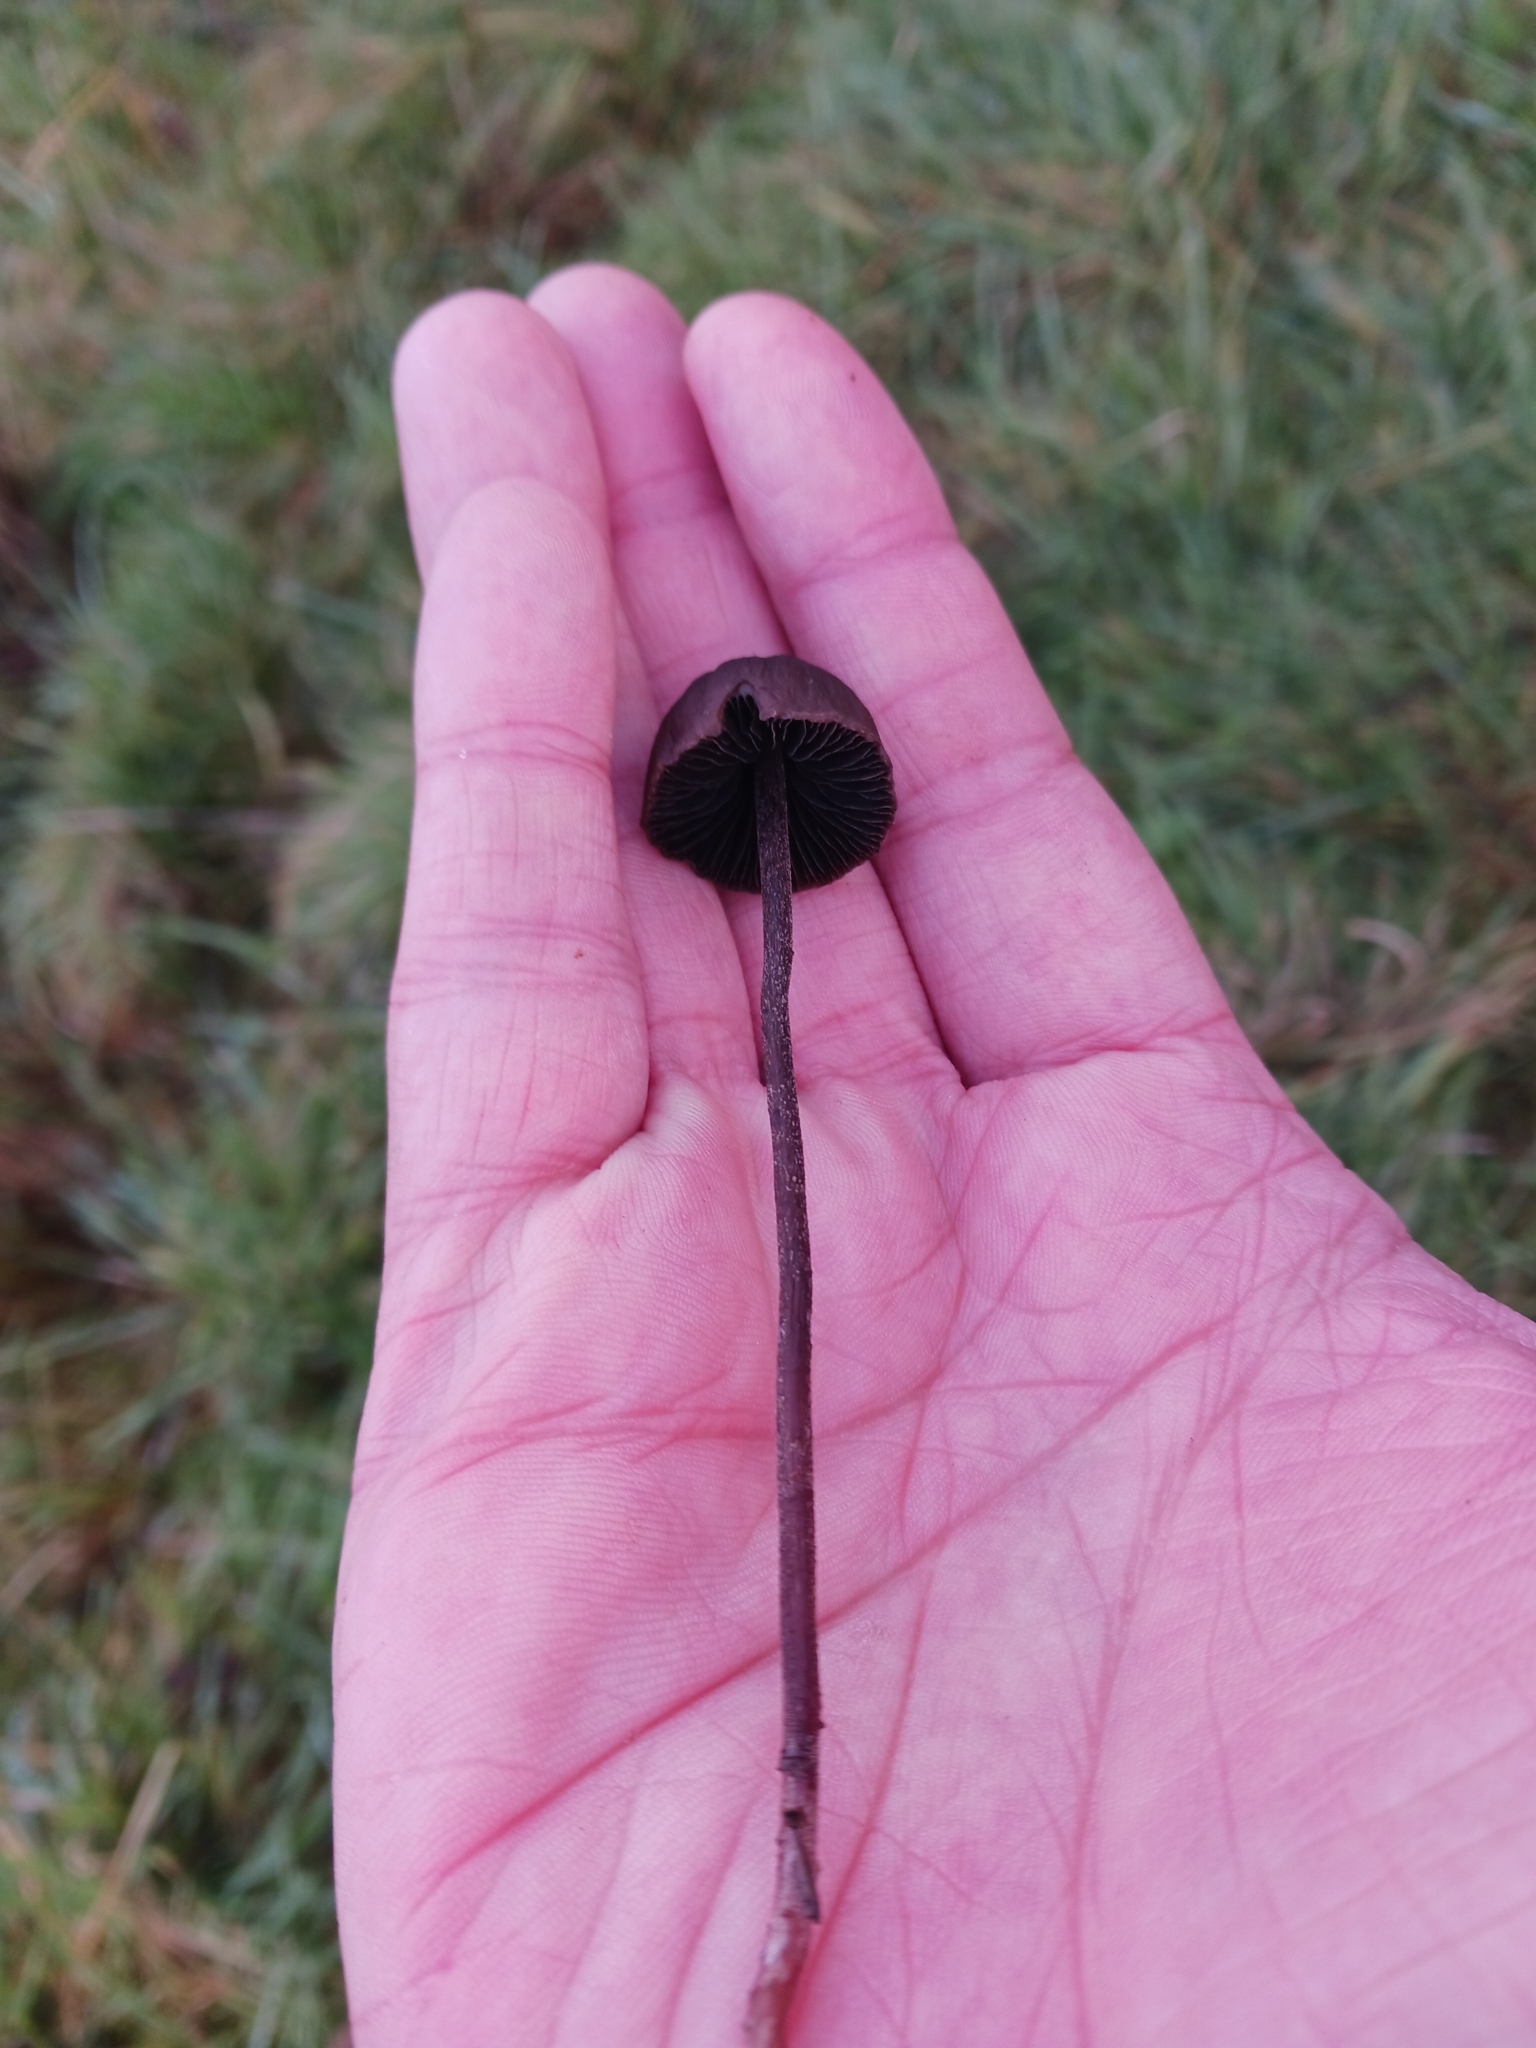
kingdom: Fungi
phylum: Basidiomycota
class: Agaricomycetes
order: Agaricales
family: Bolbitiaceae
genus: Panaeolus
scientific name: Panaeolus
